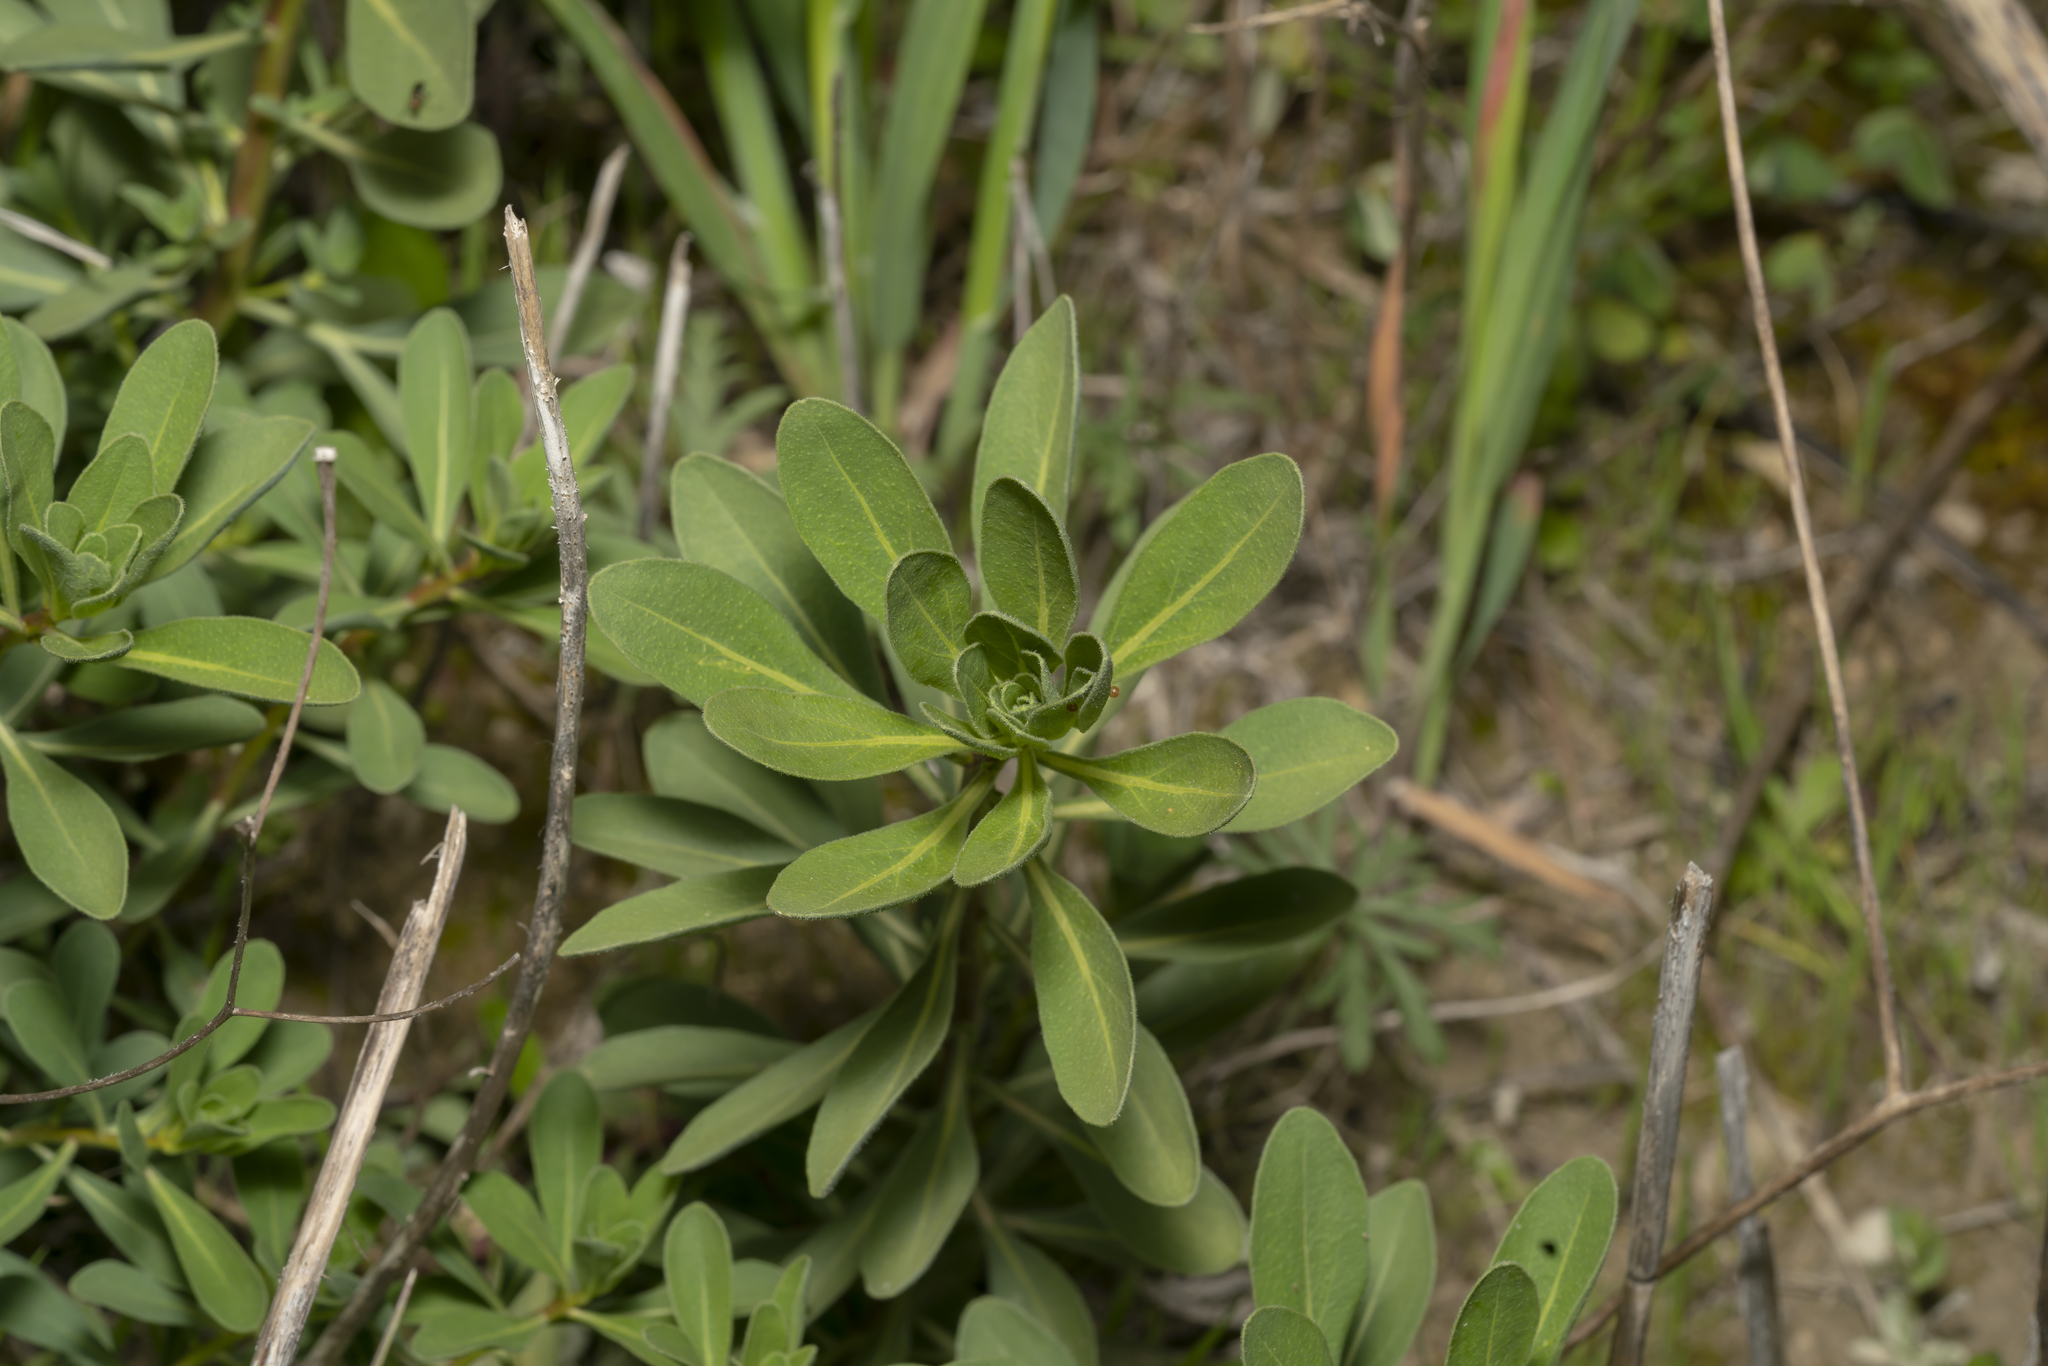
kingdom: Plantae
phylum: Tracheophyta
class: Magnoliopsida
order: Sapindales
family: Rutaceae
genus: Haplophyllum
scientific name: Haplophyllum buxbaumii
